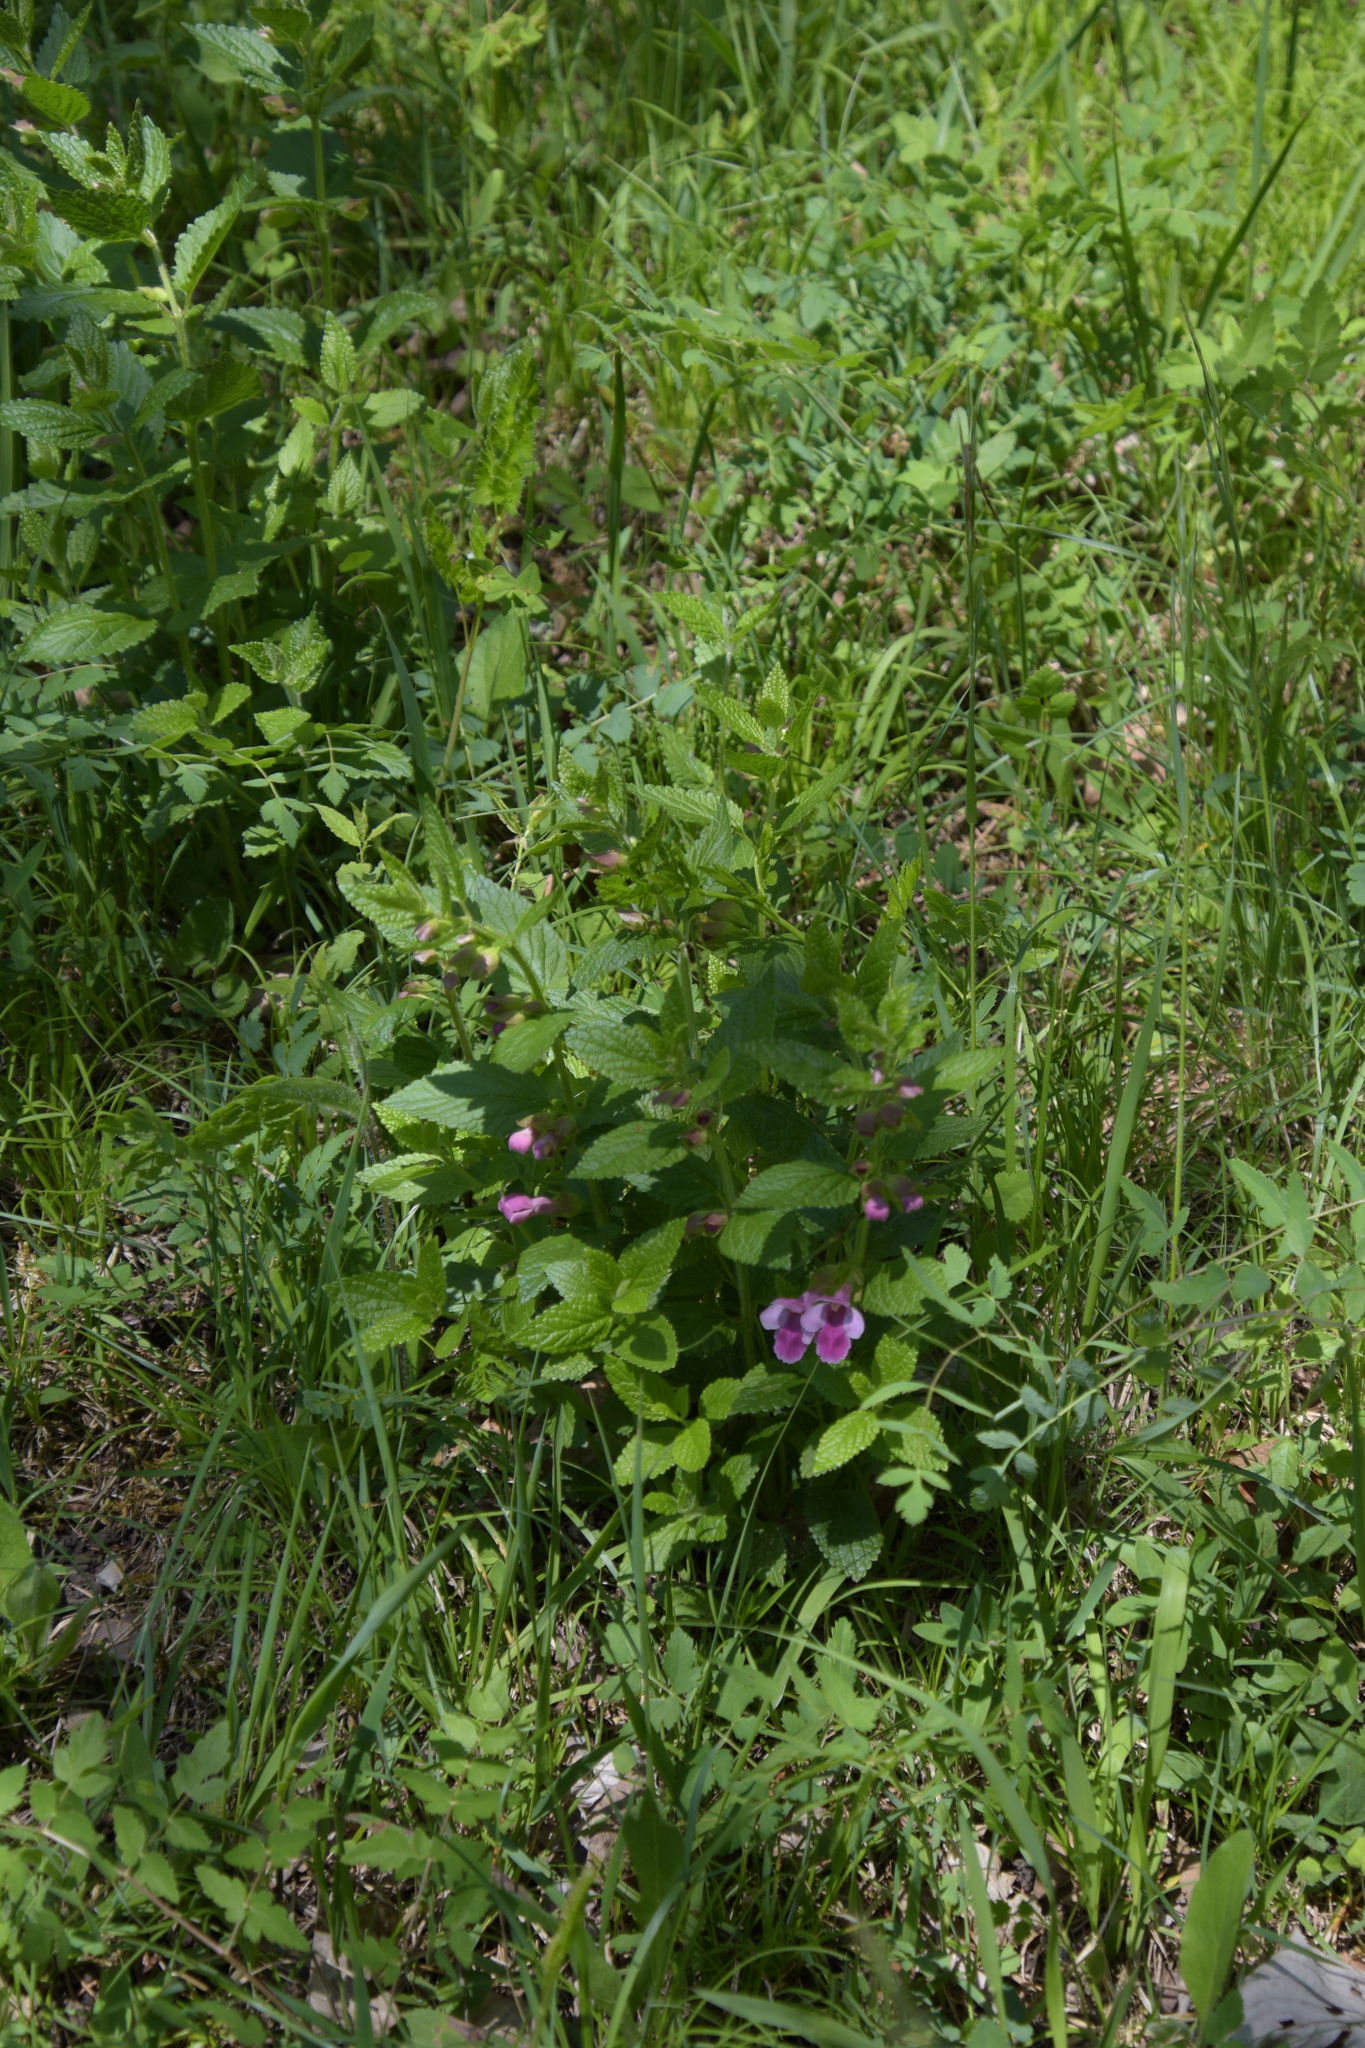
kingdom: Plantae
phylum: Tracheophyta
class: Magnoliopsida
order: Lamiales
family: Lamiaceae
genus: Melittis
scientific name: Melittis melissophyllum
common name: Bastard balm
